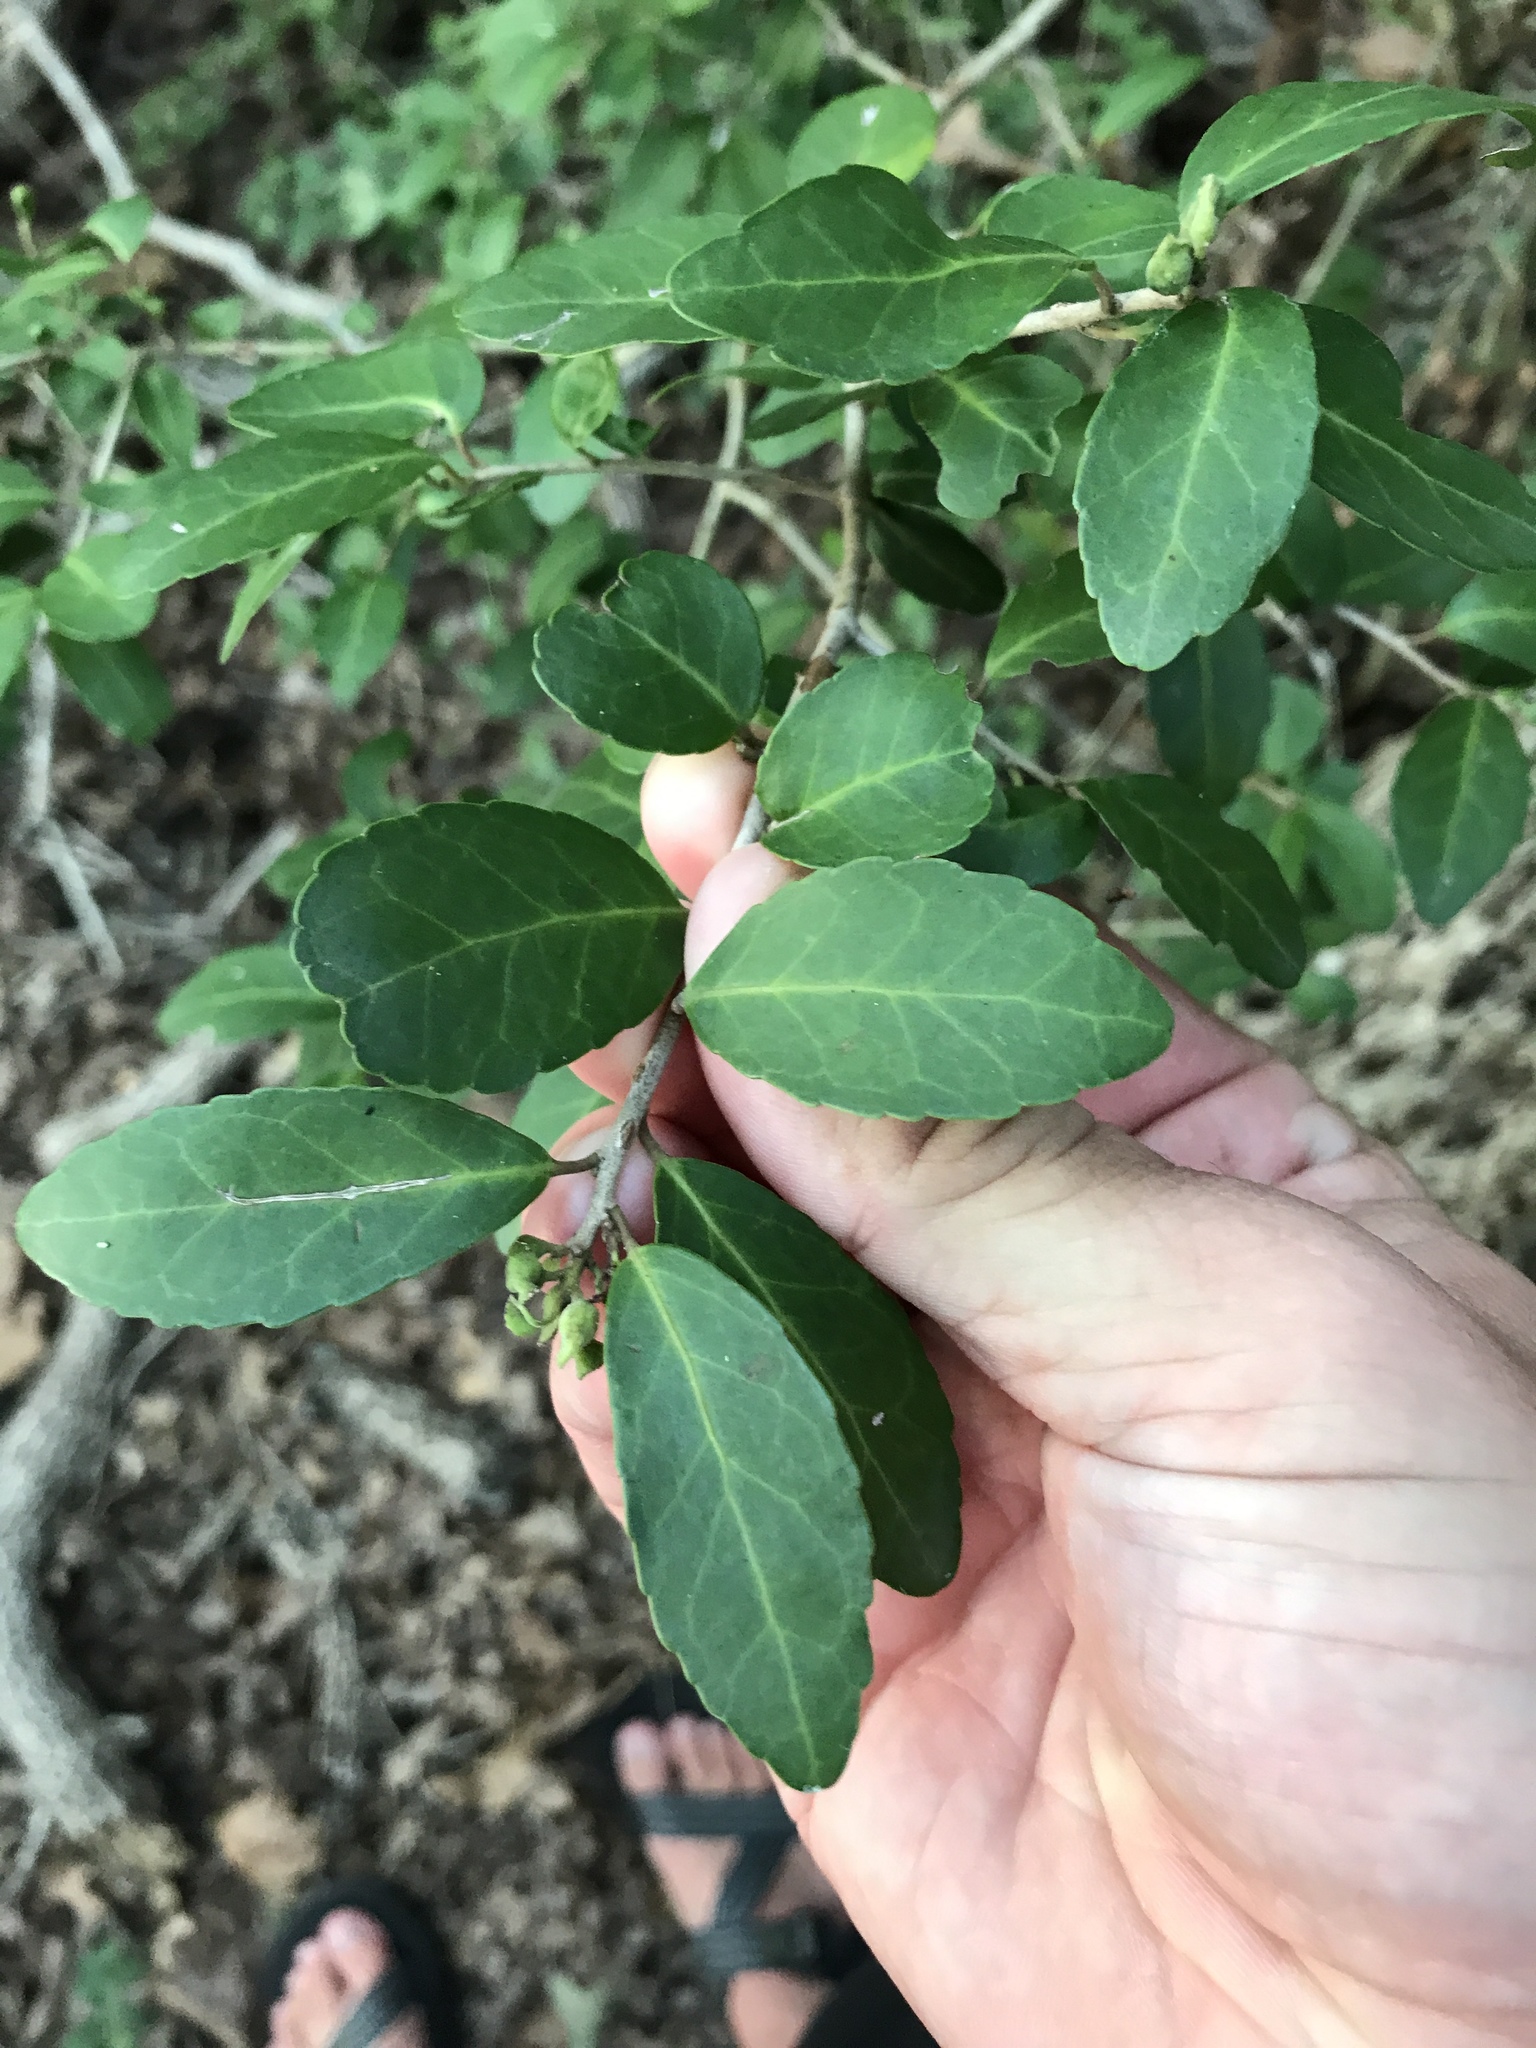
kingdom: Plantae
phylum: Tracheophyta
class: Magnoliopsida
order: Aquifoliales
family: Aquifoliaceae
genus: Ilex
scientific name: Ilex vomitoria
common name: Yaupon holly
